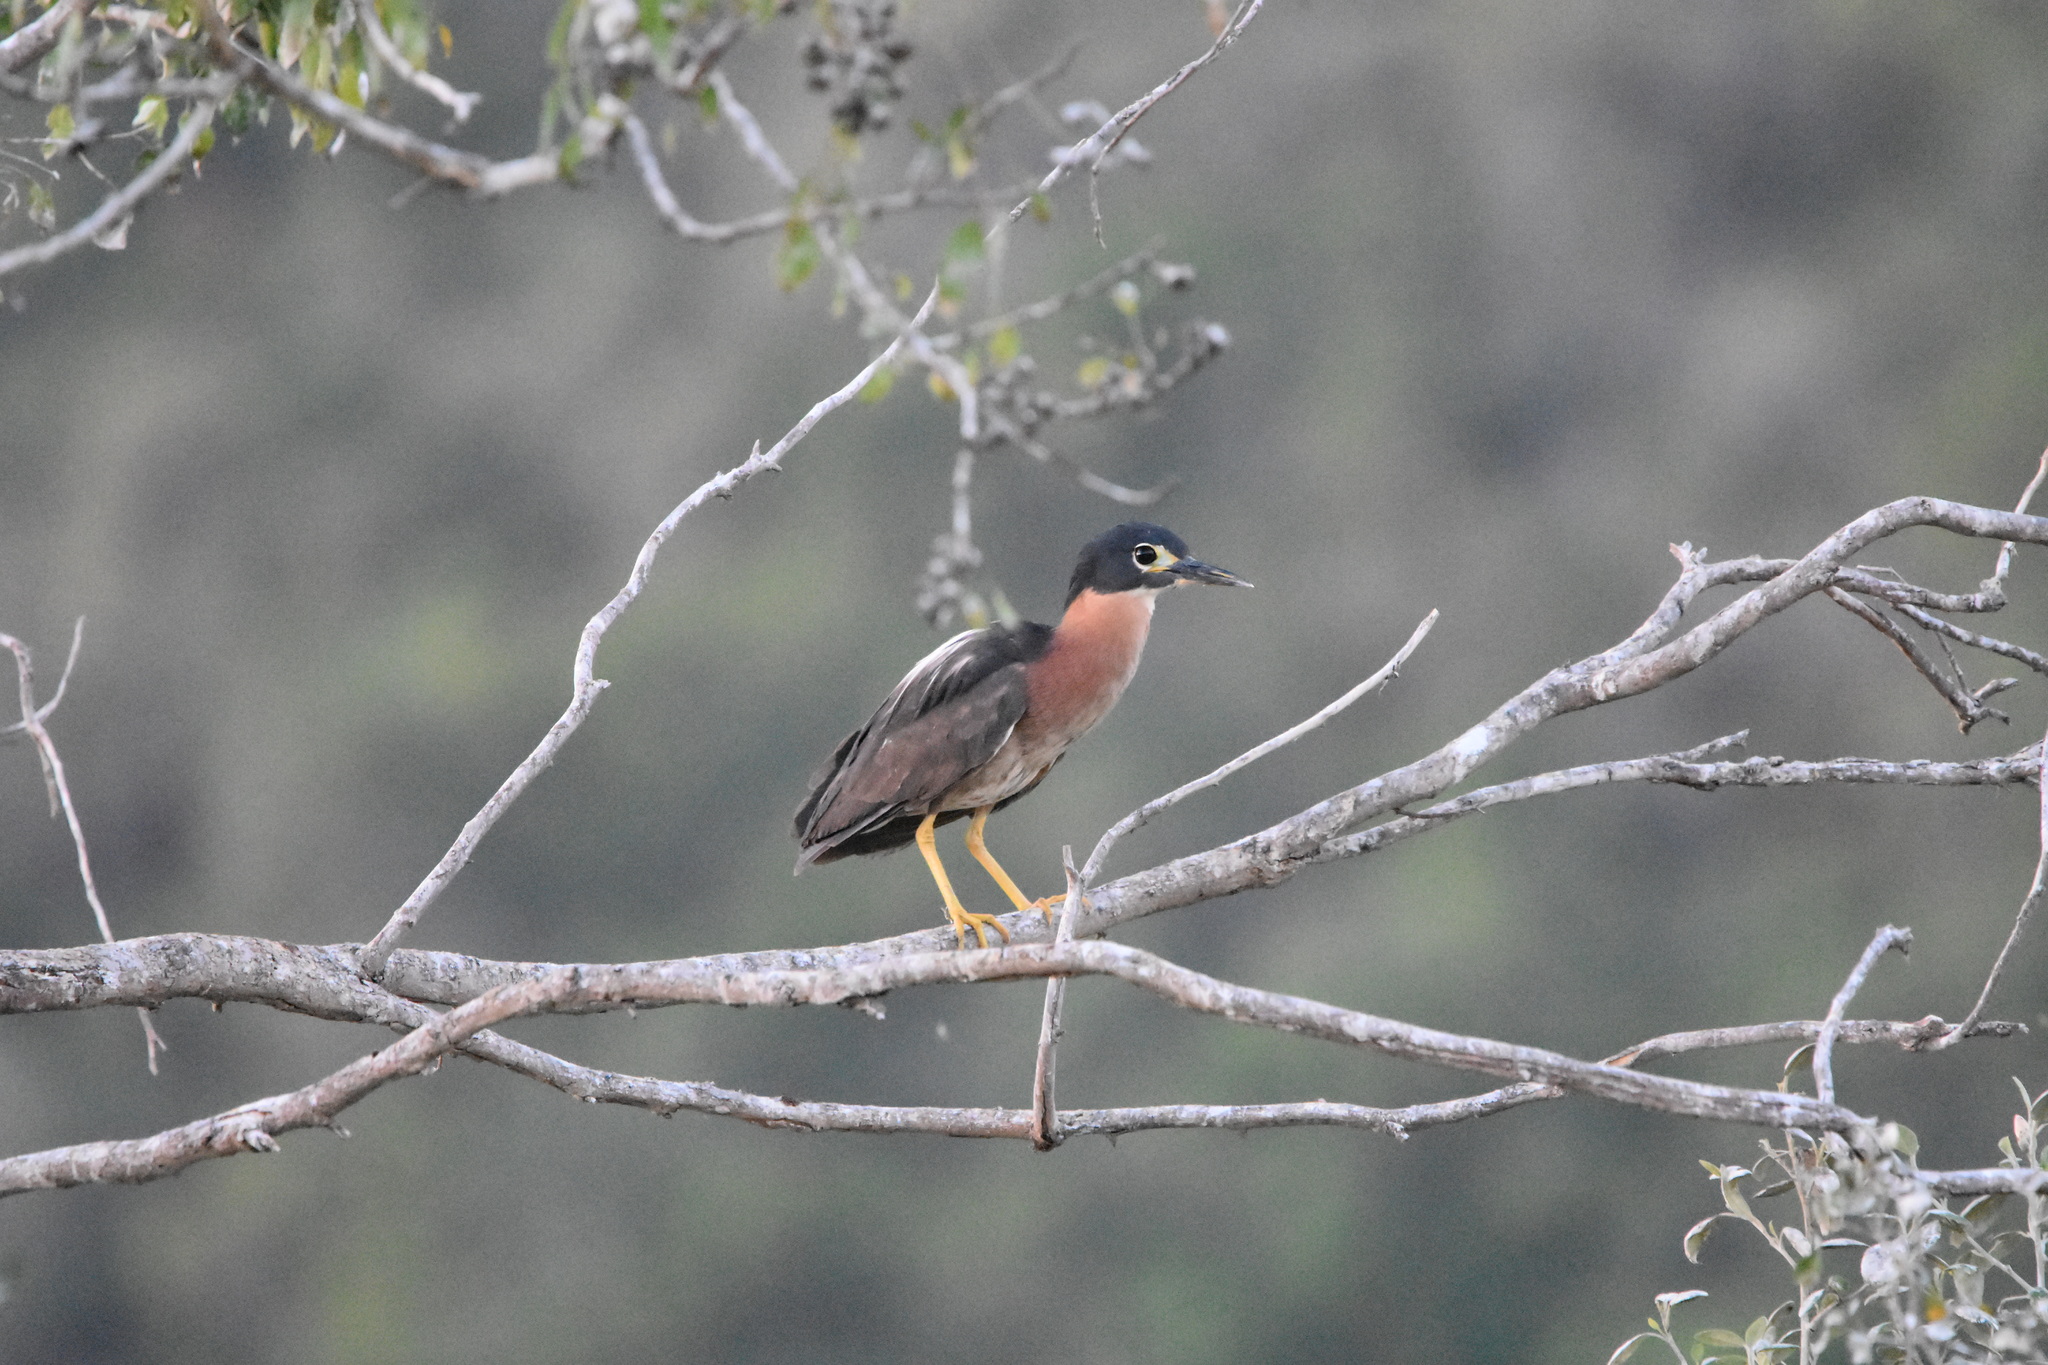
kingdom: Animalia
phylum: Chordata
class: Aves
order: Pelecaniformes
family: Ardeidae
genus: Gorsachius
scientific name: Gorsachius leuconotus
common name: White-backed night heron
